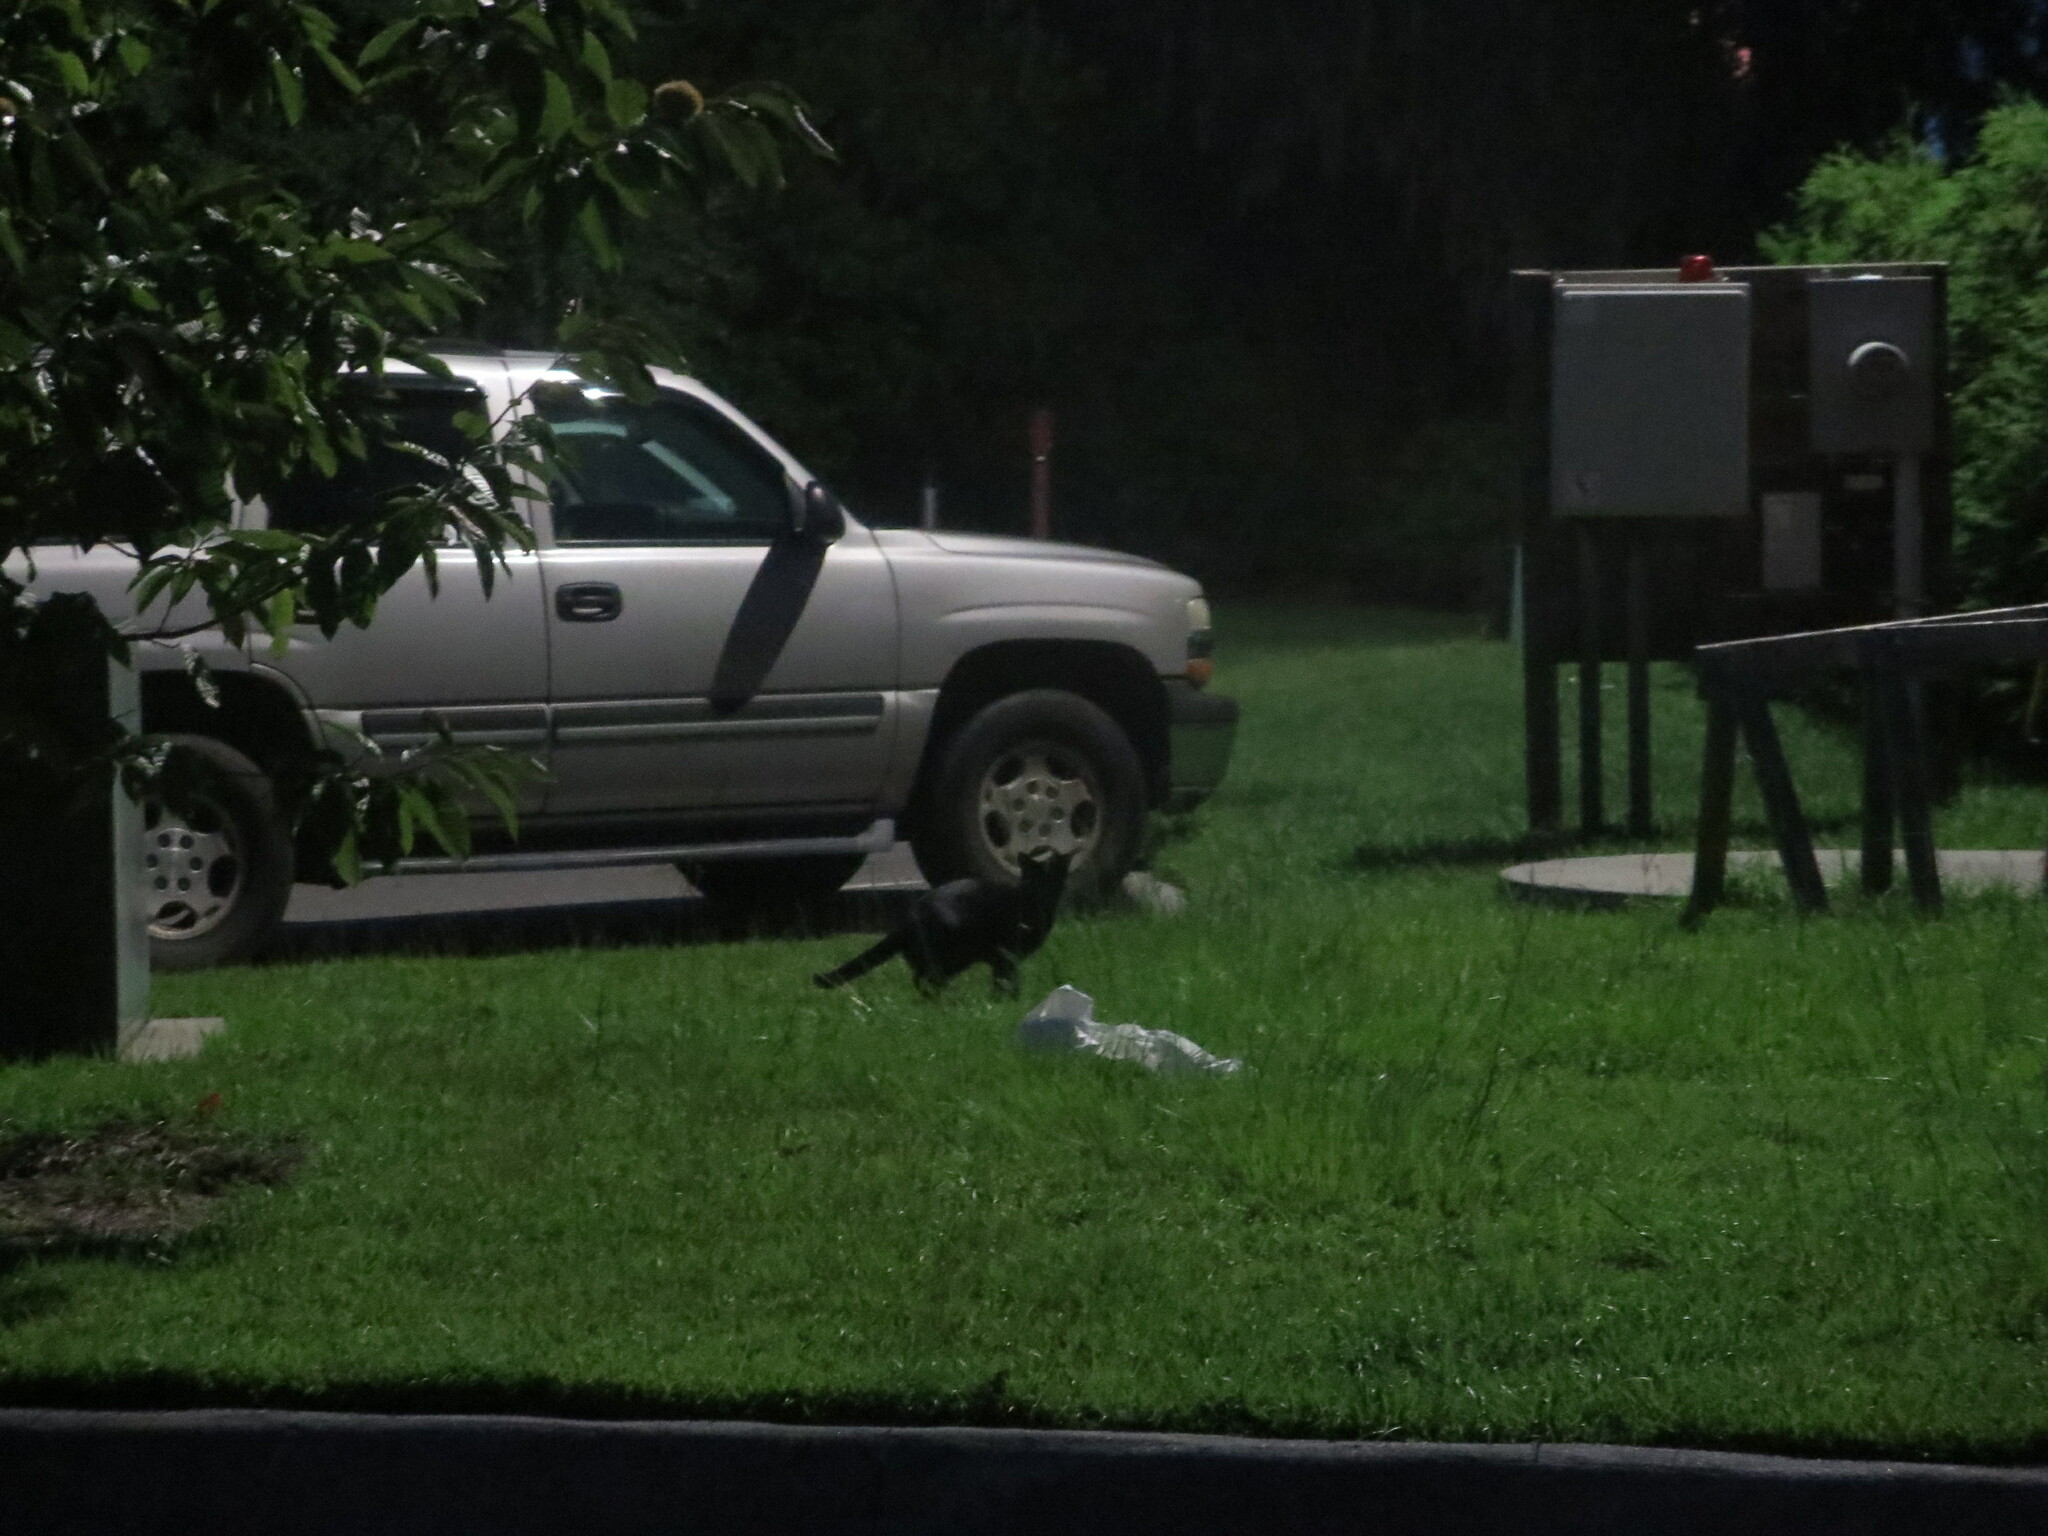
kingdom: Animalia
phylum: Chordata
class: Mammalia
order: Carnivora
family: Felidae
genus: Felis
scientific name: Felis catus
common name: Domestic cat
